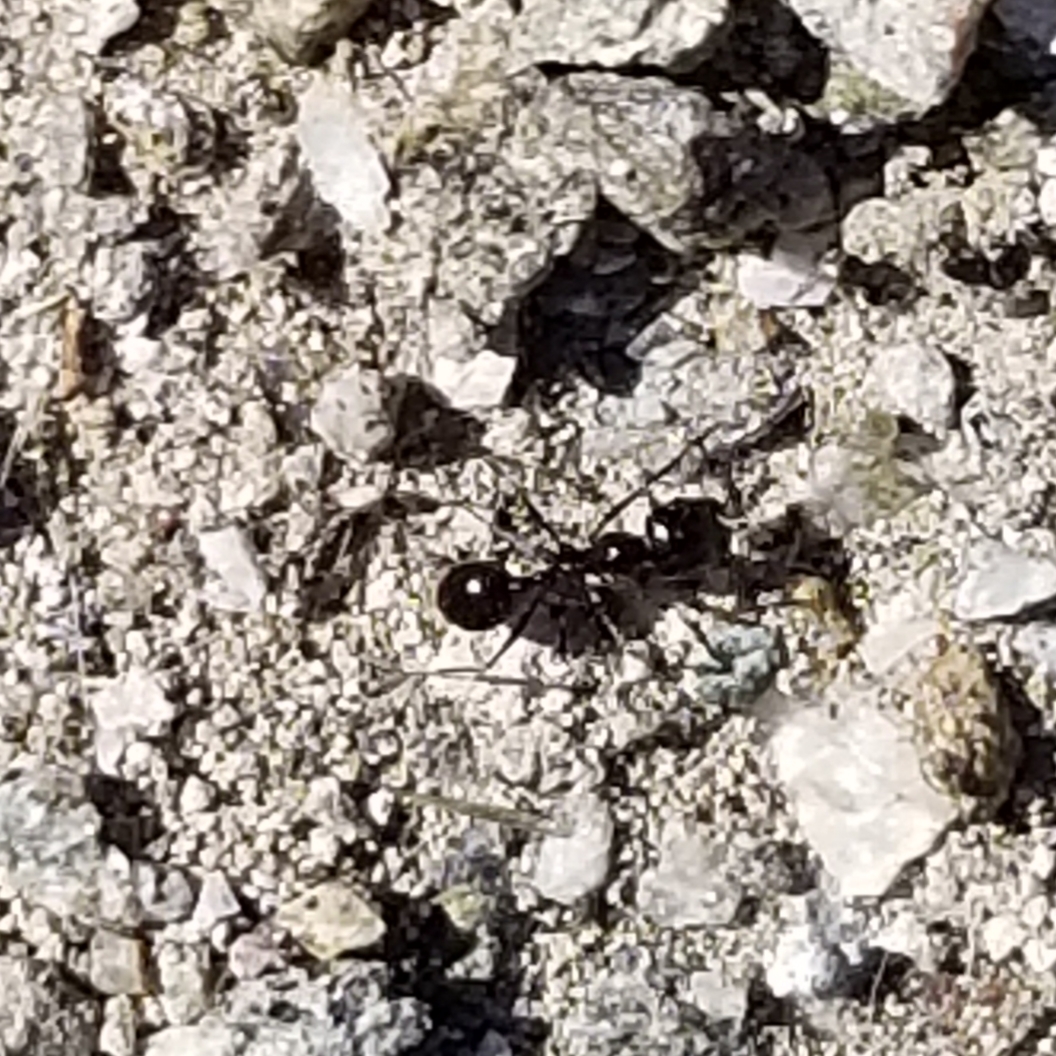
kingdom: Animalia
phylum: Arthropoda
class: Insecta
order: Hymenoptera
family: Formicidae
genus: Messor
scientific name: Messor pergandei
